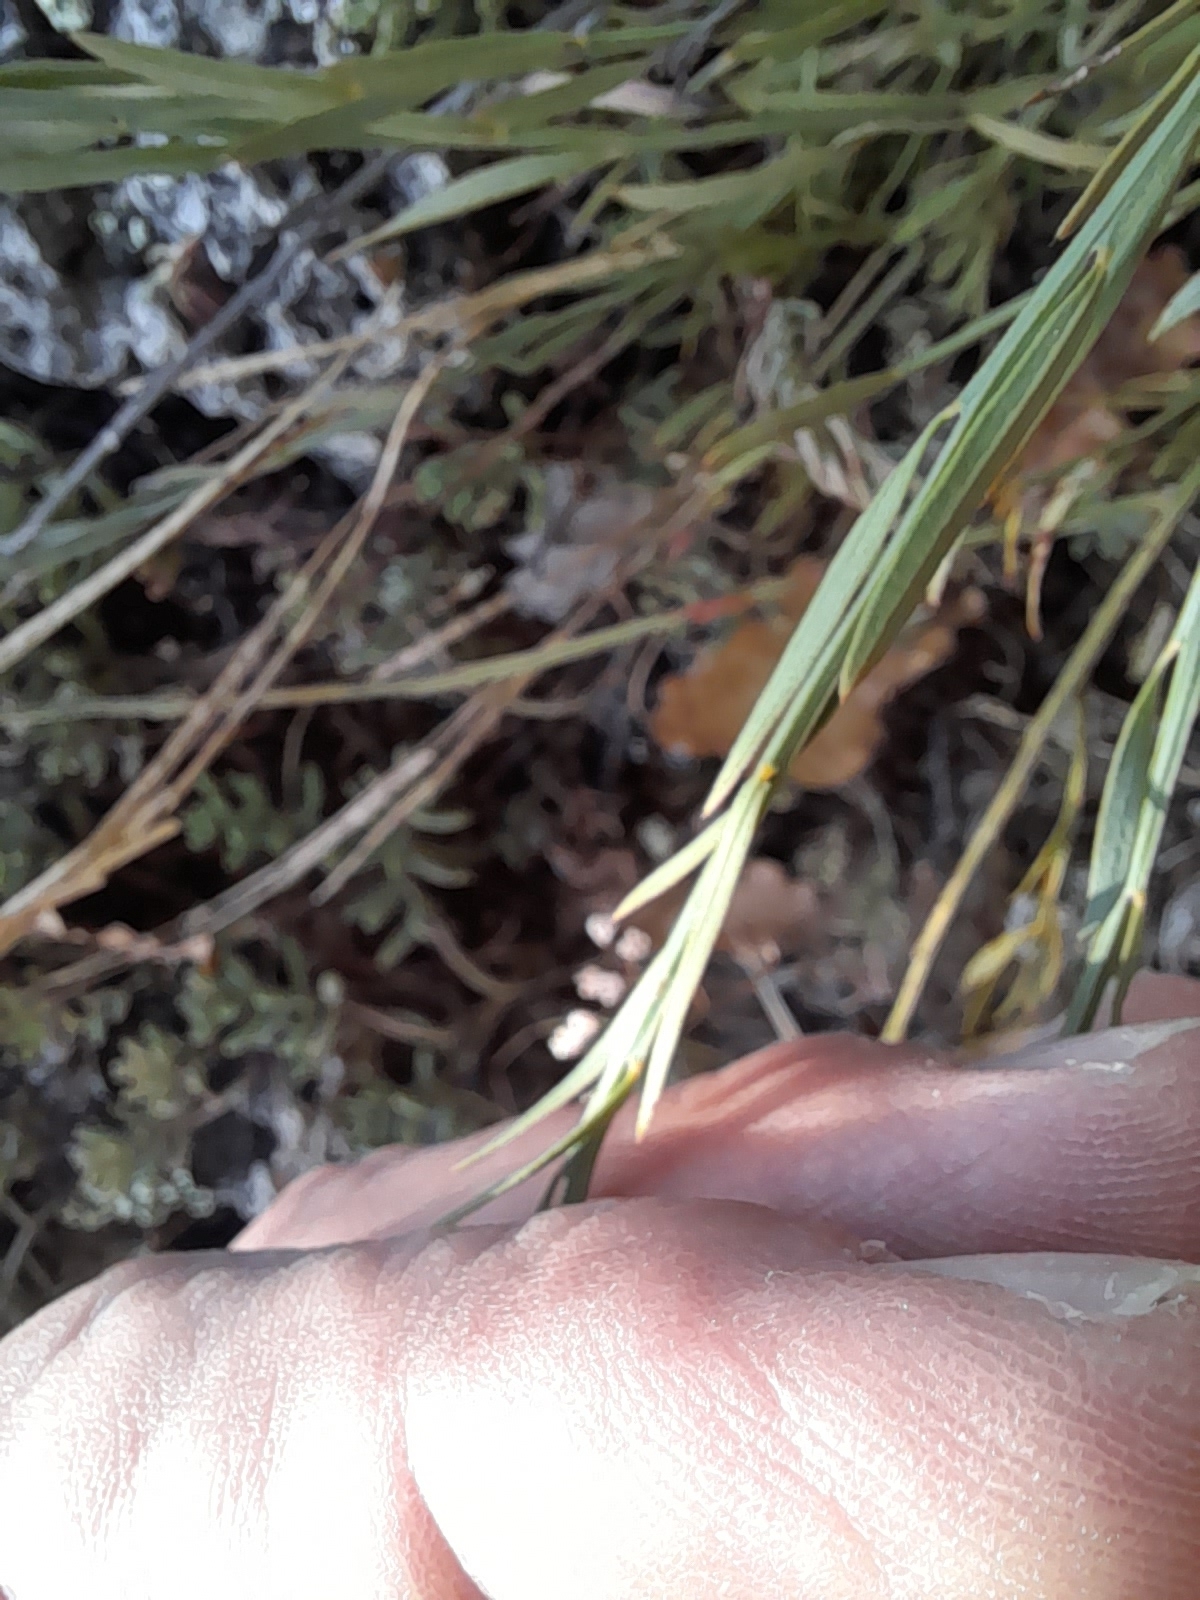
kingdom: Plantae
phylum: Tracheophyta
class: Magnoliopsida
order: Santalales
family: Santalaceae
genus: Osyris
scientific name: Osyris alba
